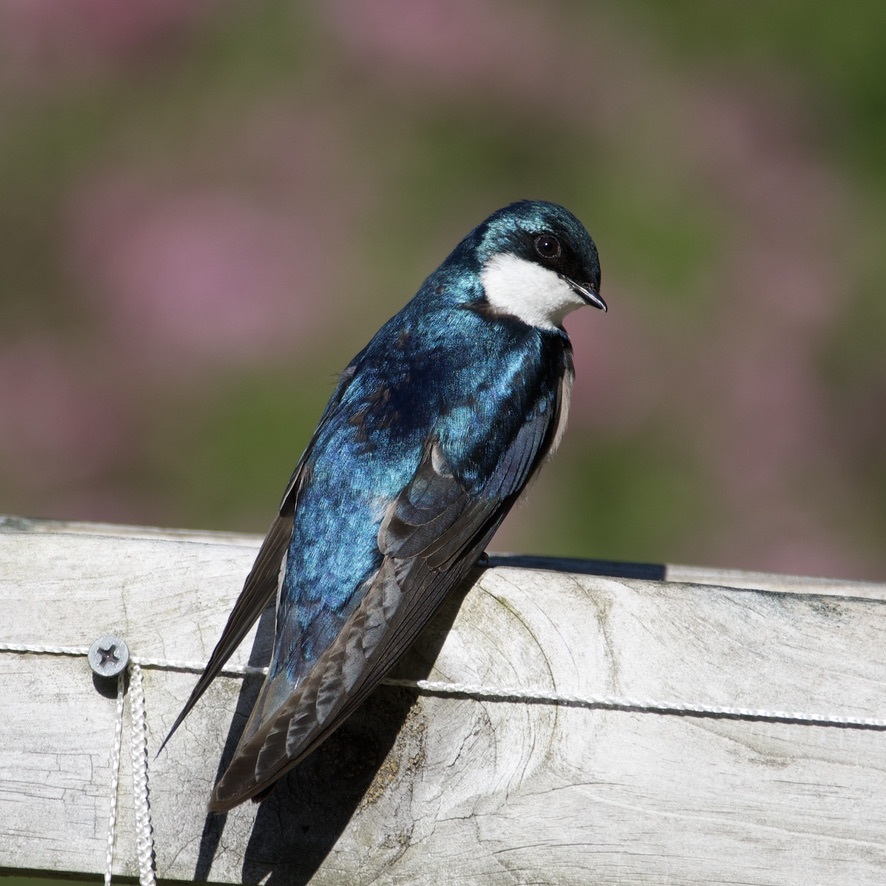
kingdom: Animalia
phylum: Chordata
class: Aves
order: Passeriformes
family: Hirundinidae
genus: Tachycineta
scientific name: Tachycineta bicolor
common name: Tree swallow
